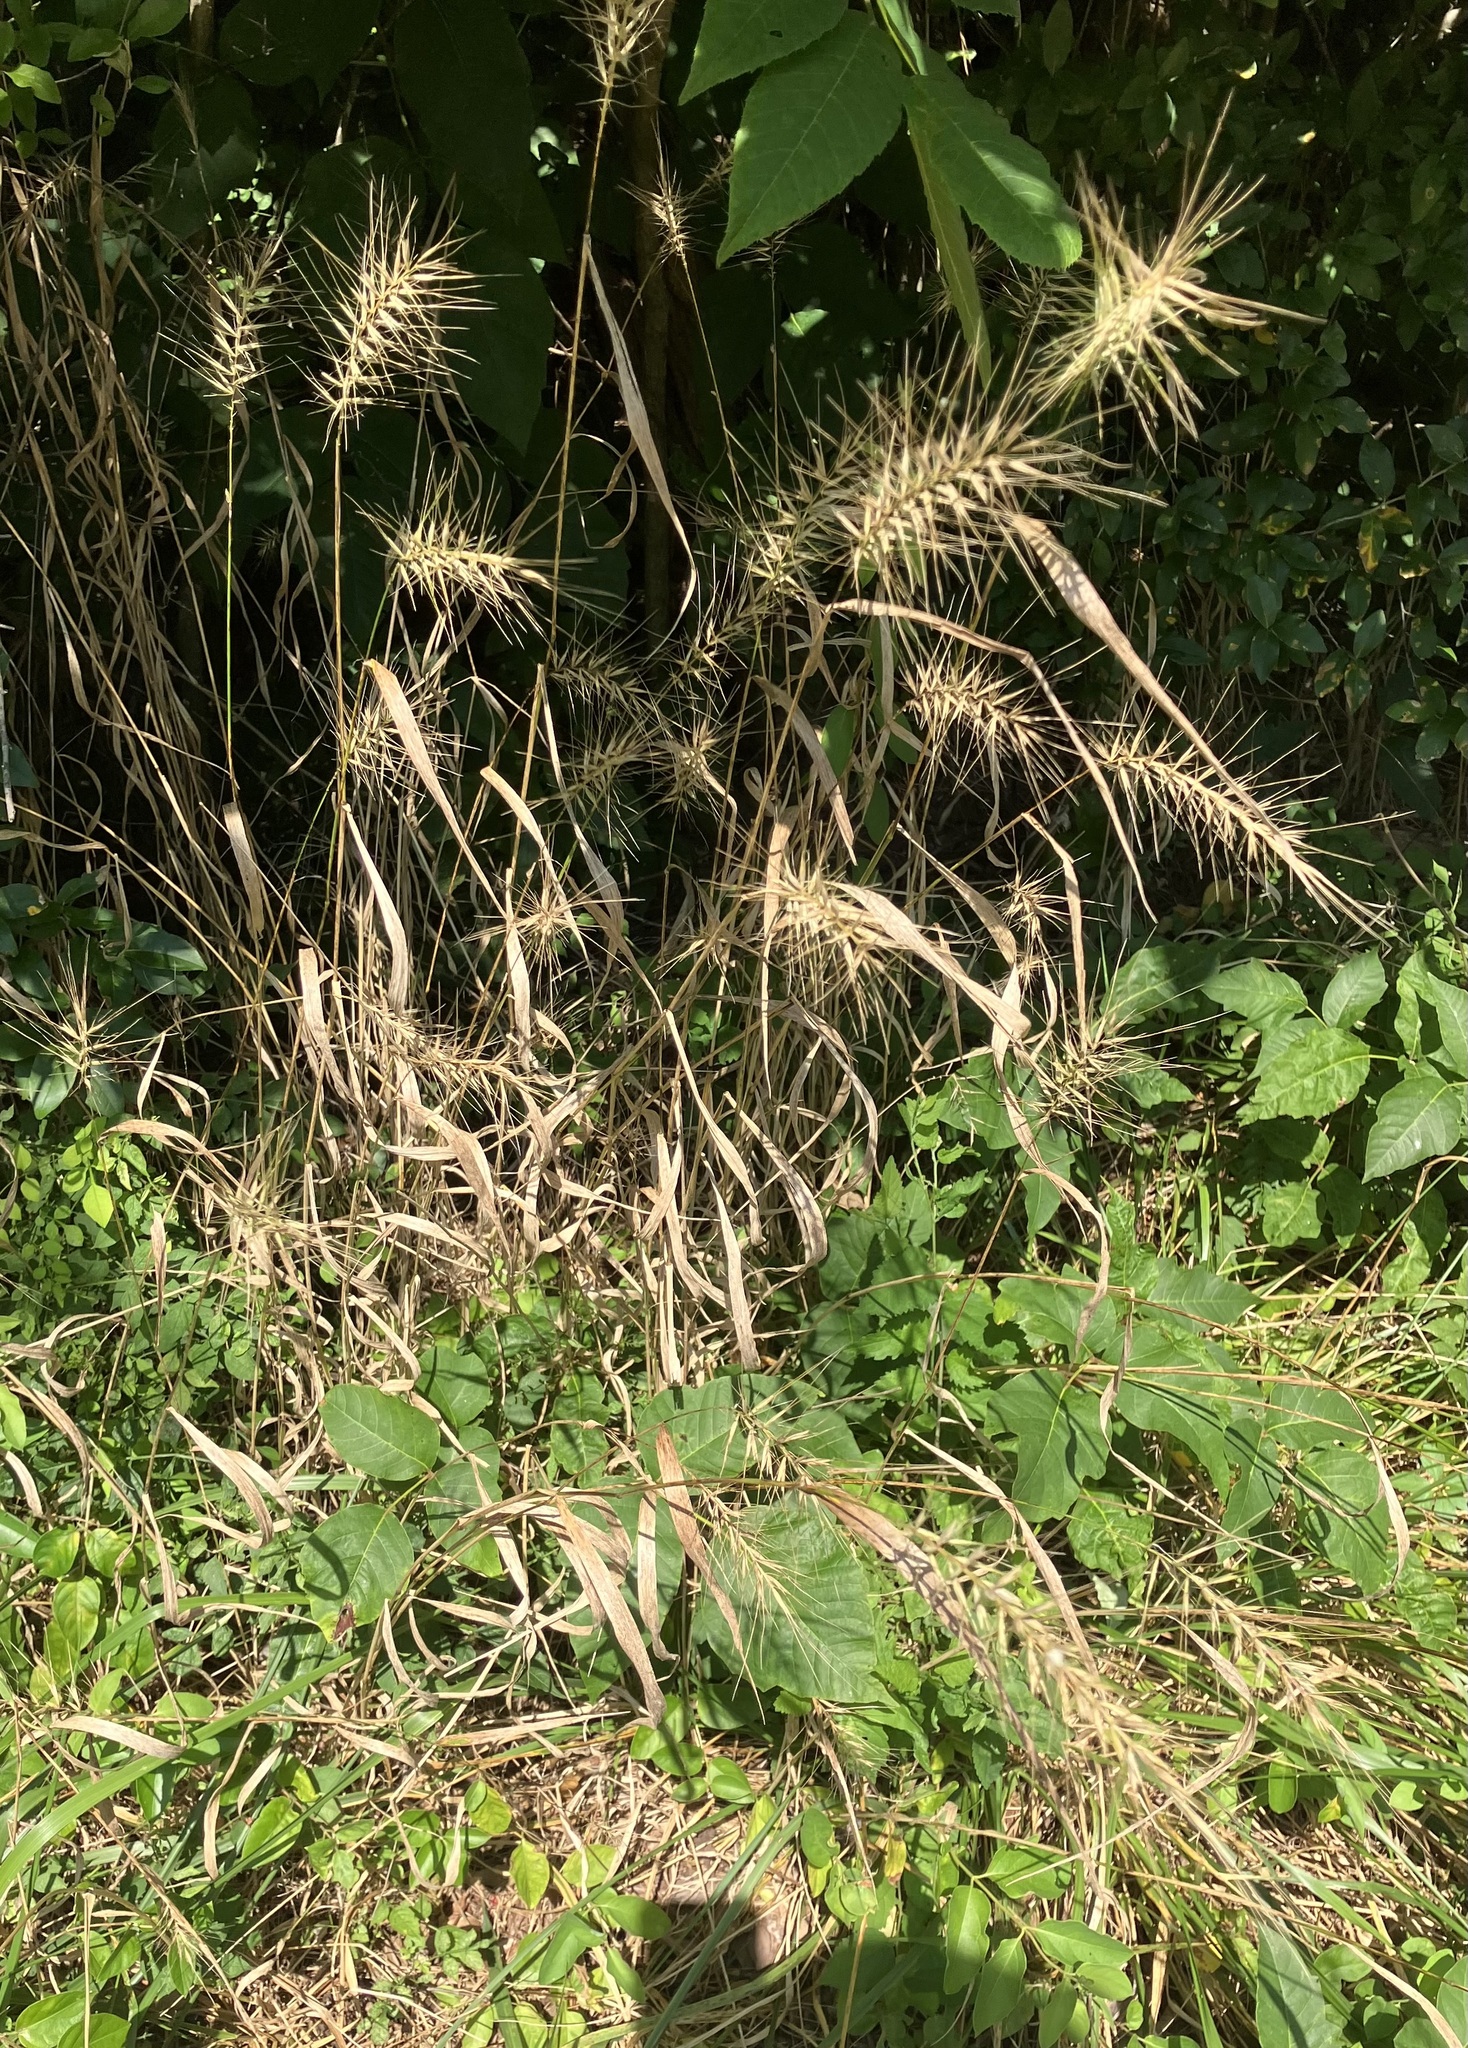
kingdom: Plantae
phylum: Tracheophyta
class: Liliopsida
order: Poales
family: Poaceae
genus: Elymus
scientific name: Elymus hystrix
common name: Bottlebrush grass
